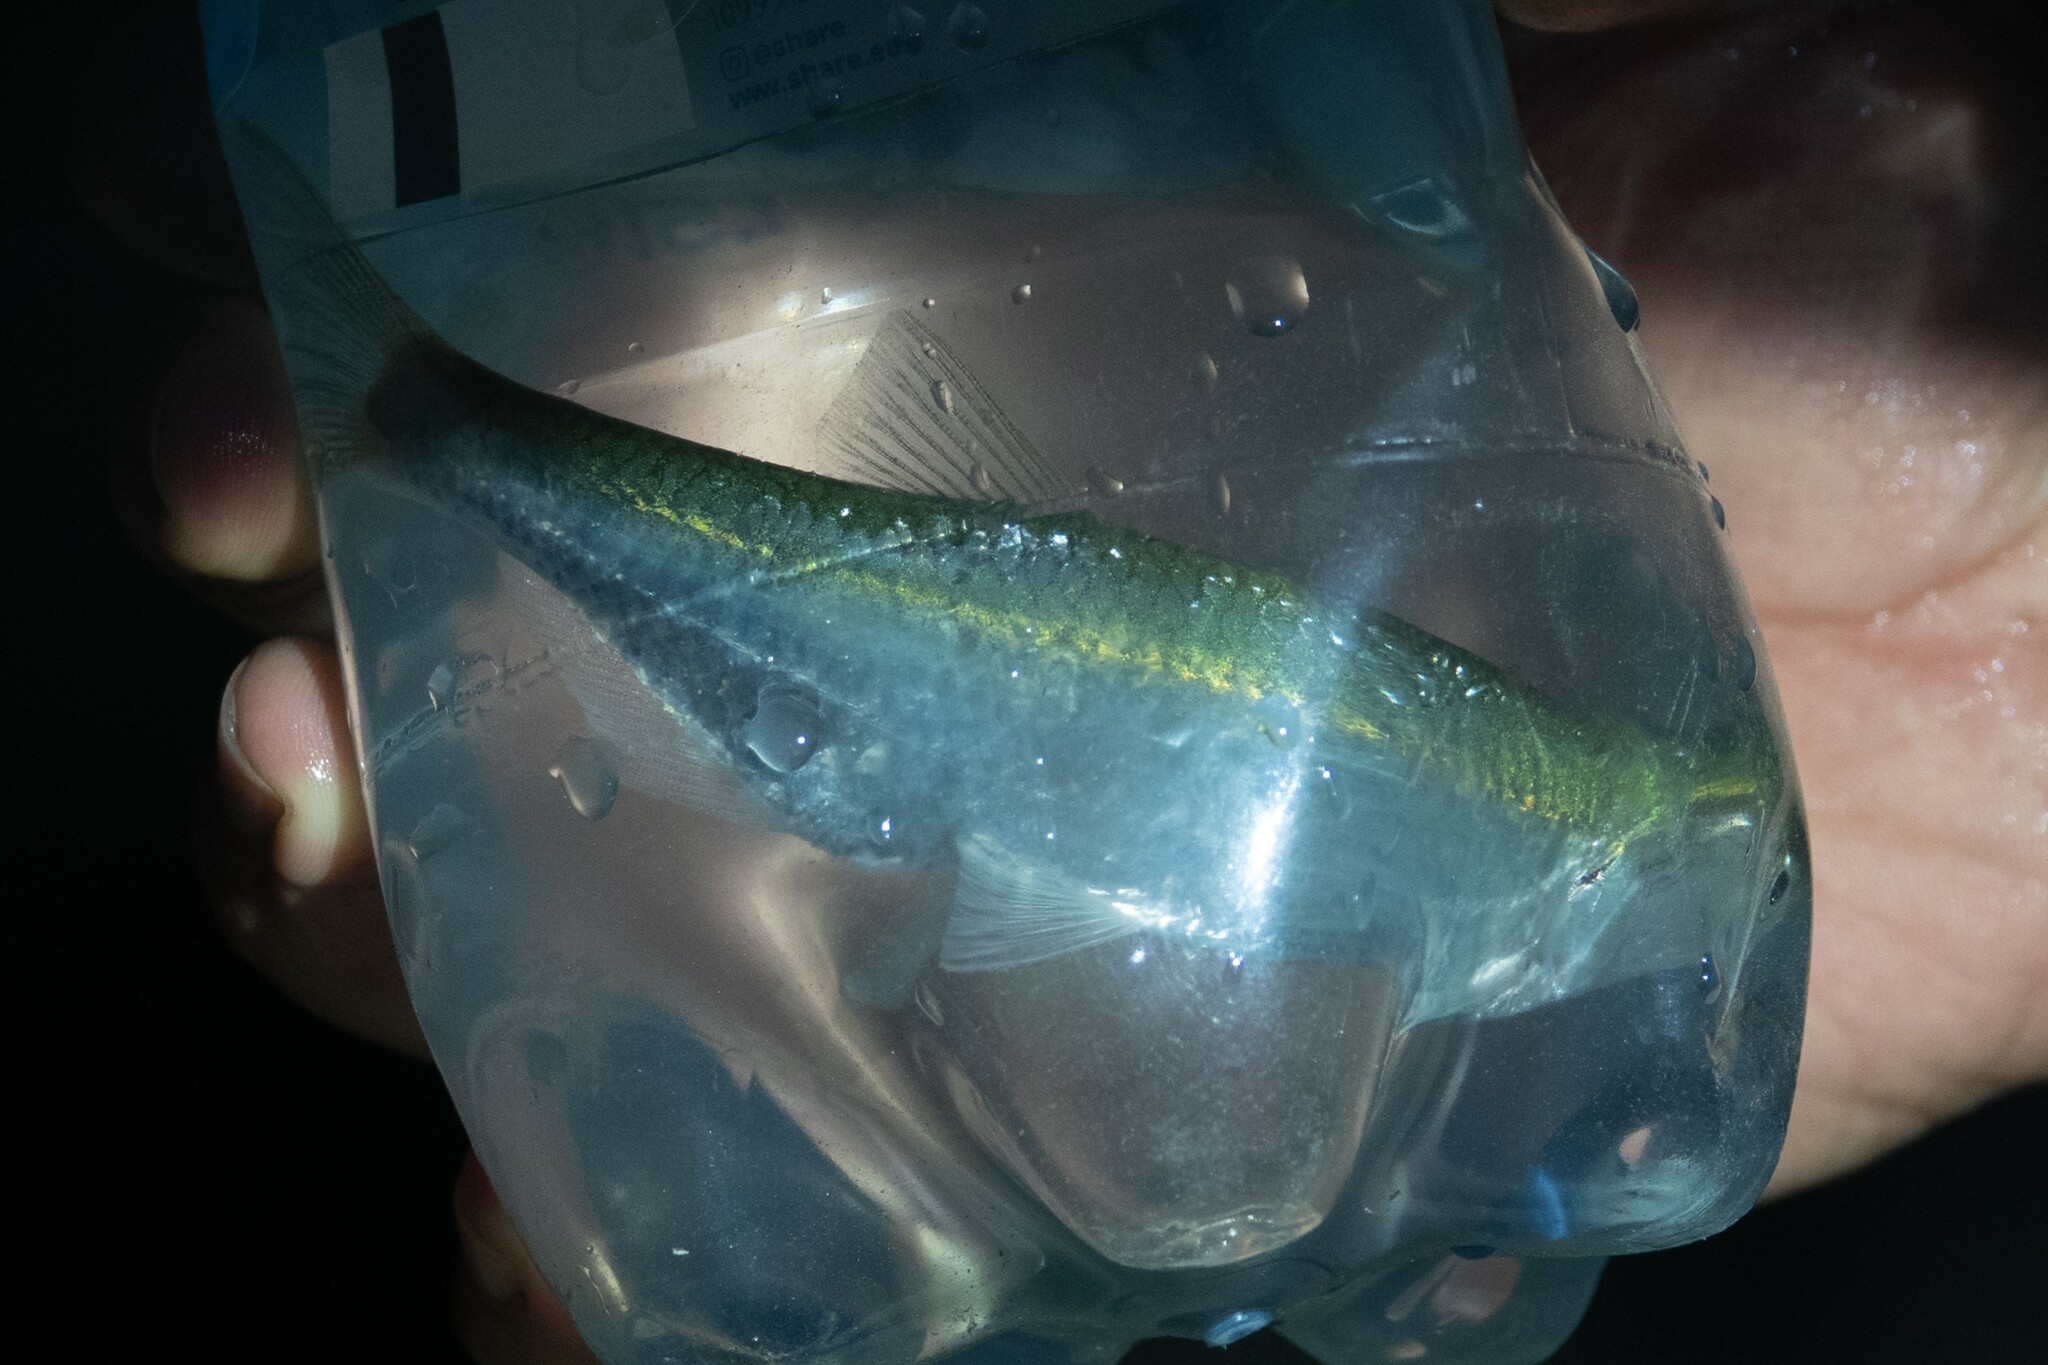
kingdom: Animalia
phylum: Chordata
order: Cypriniformes
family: Cyprinidae
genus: Alburnus
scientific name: Alburnus alburnus
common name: Bleak
